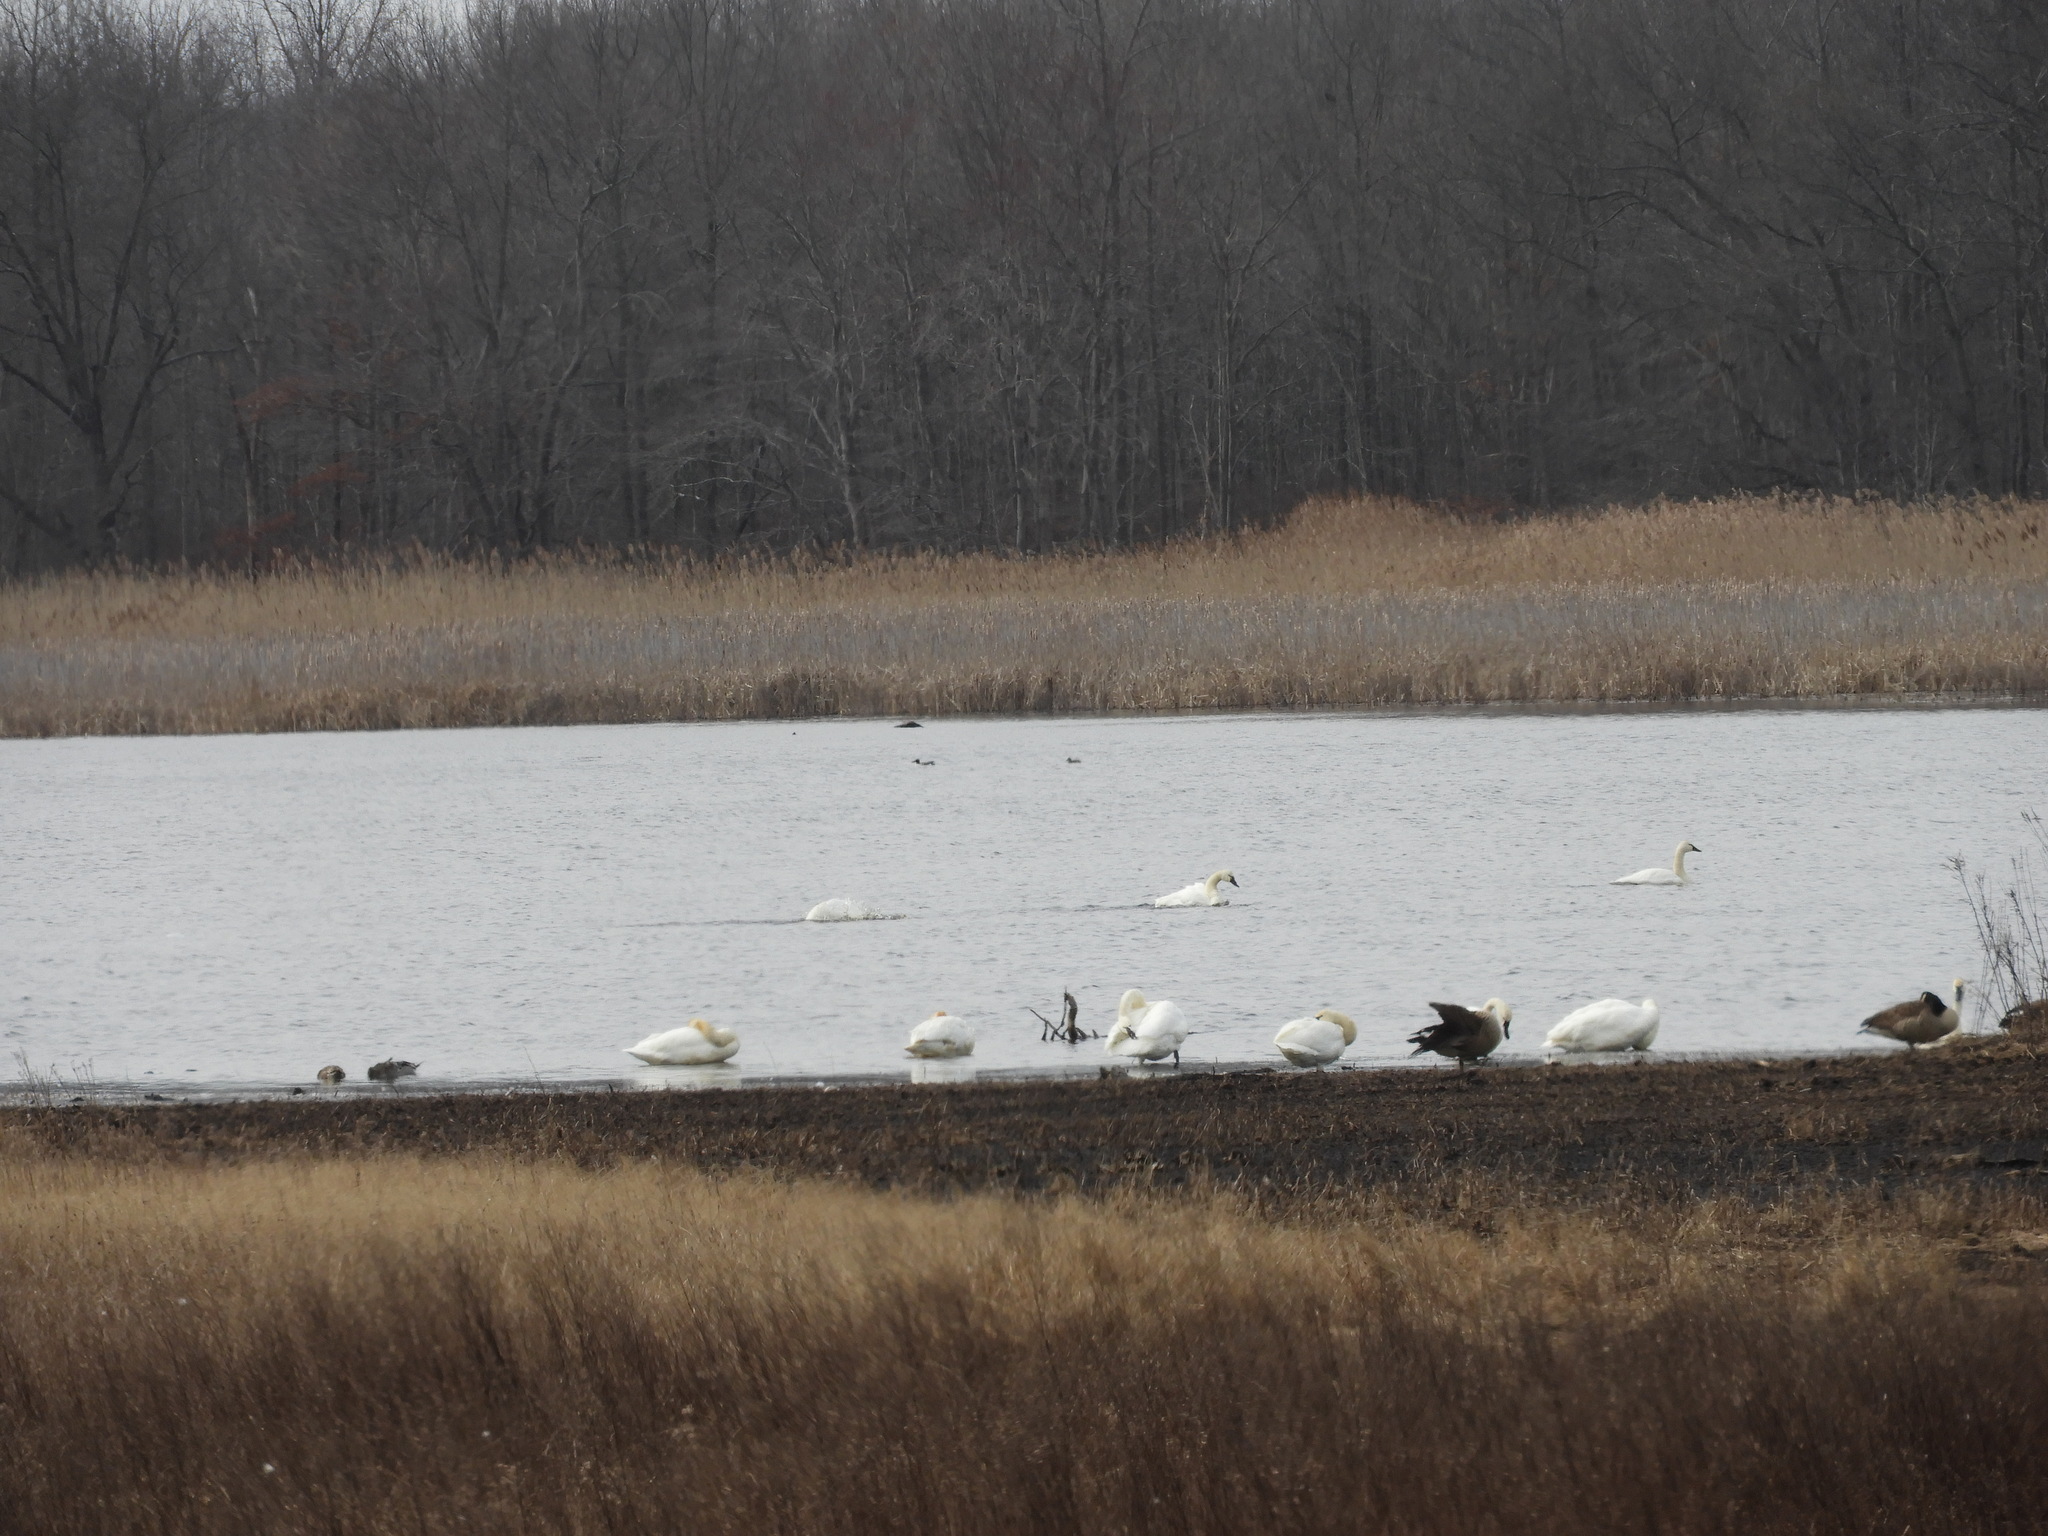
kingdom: Animalia
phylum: Chordata
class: Aves
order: Anseriformes
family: Anatidae
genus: Cygnus
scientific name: Cygnus columbianus
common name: Tundra swan
